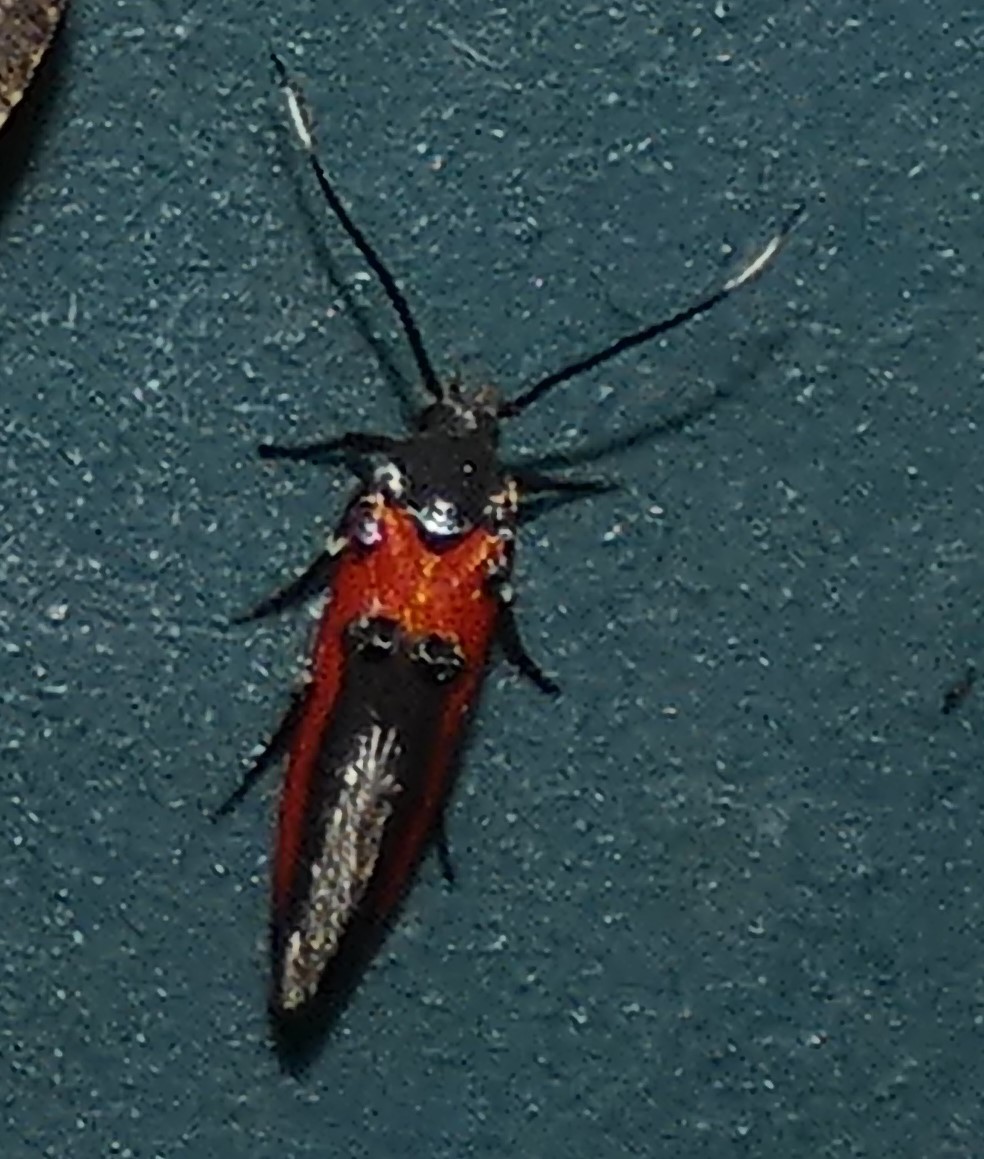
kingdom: Animalia
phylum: Arthropoda
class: Insecta
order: Lepidoptera
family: Cosmopterigidae
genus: Euclemensia
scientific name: Euclemensia bassettella
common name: Kermes scale moth
